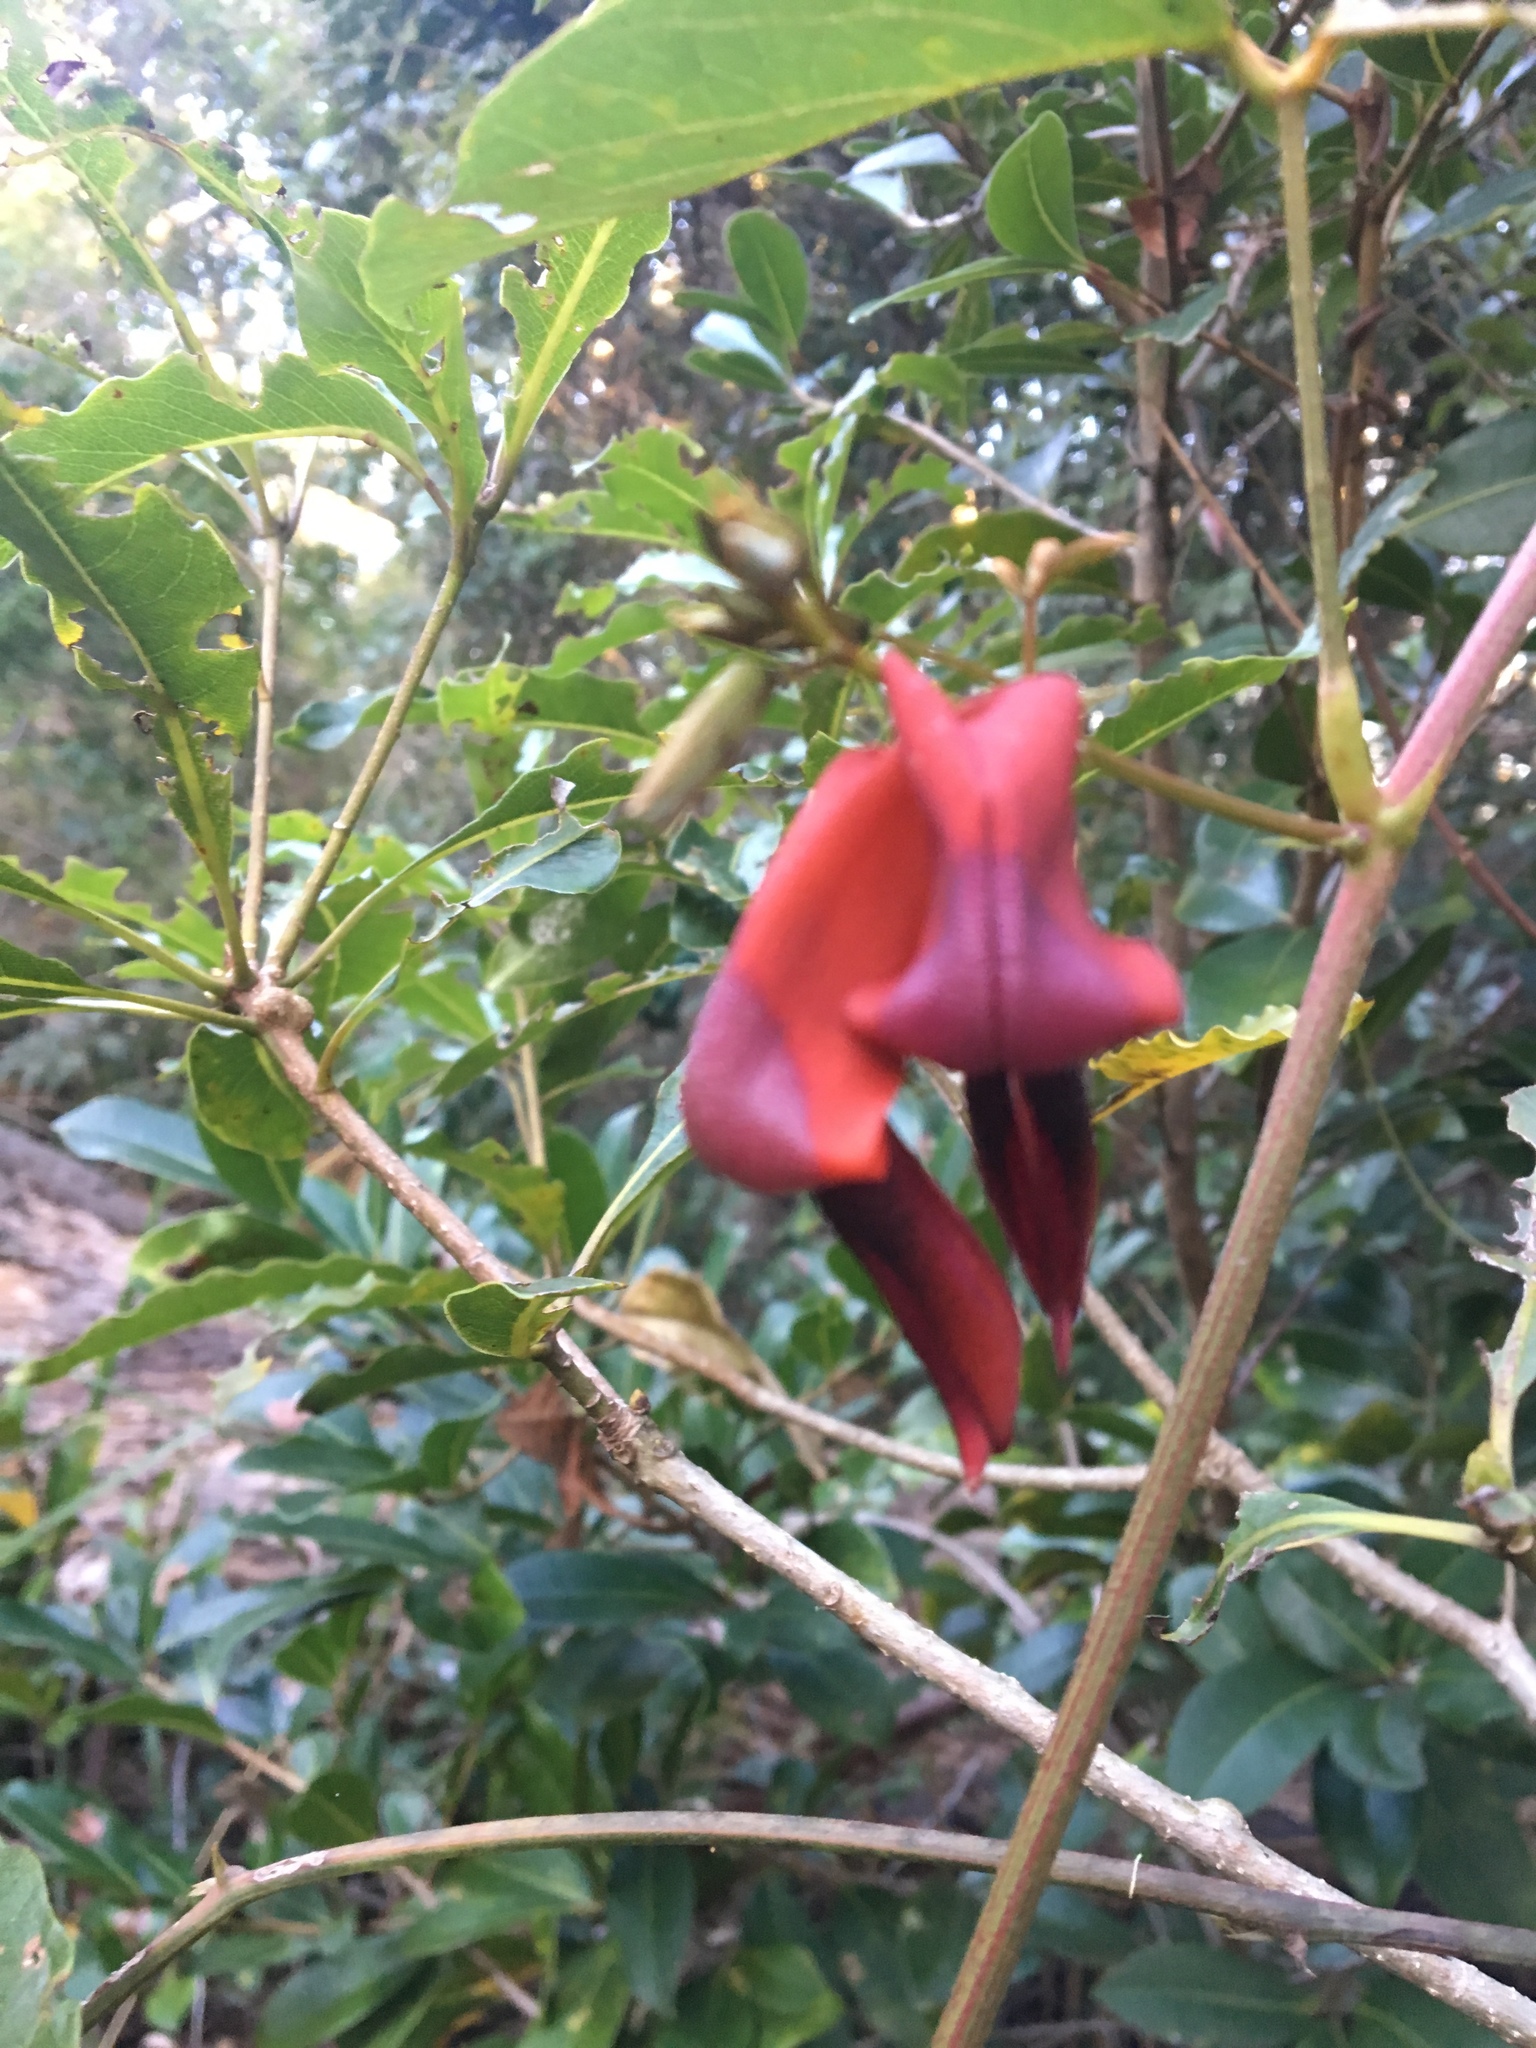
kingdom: Plantae
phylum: Tracheophyta
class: Magnoliopsida
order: Fabales
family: Fabaceae
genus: Kennedia
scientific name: Kennedia rubicunda
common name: Red kennedy-pea
